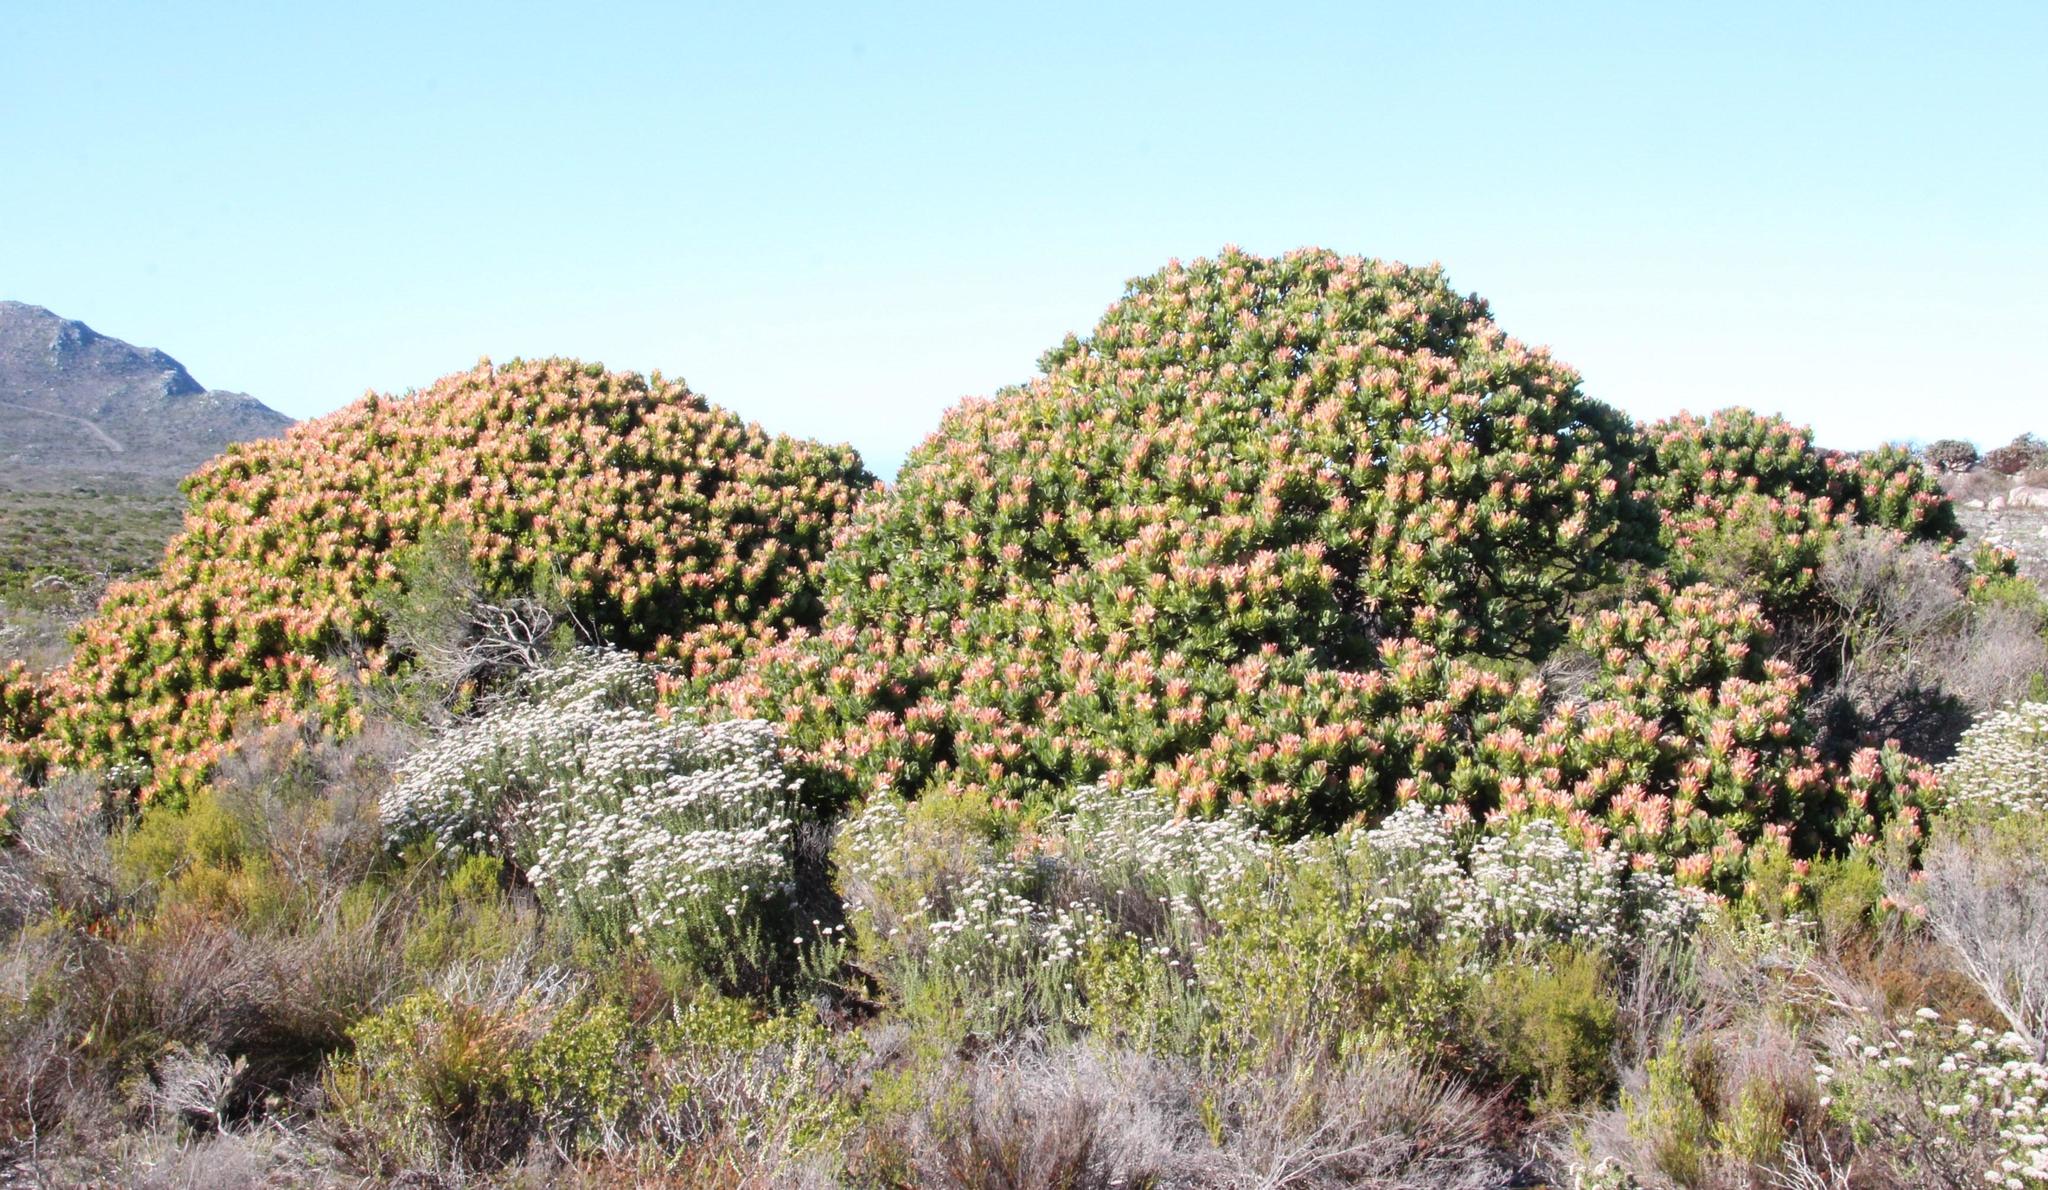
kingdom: Plantae
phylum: Tracheophyta
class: Magnoliopsida
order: Proteales
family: Proteaceae
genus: Mimetes
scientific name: Mimetes fimbriifolius
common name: Fringed bottlebrush
